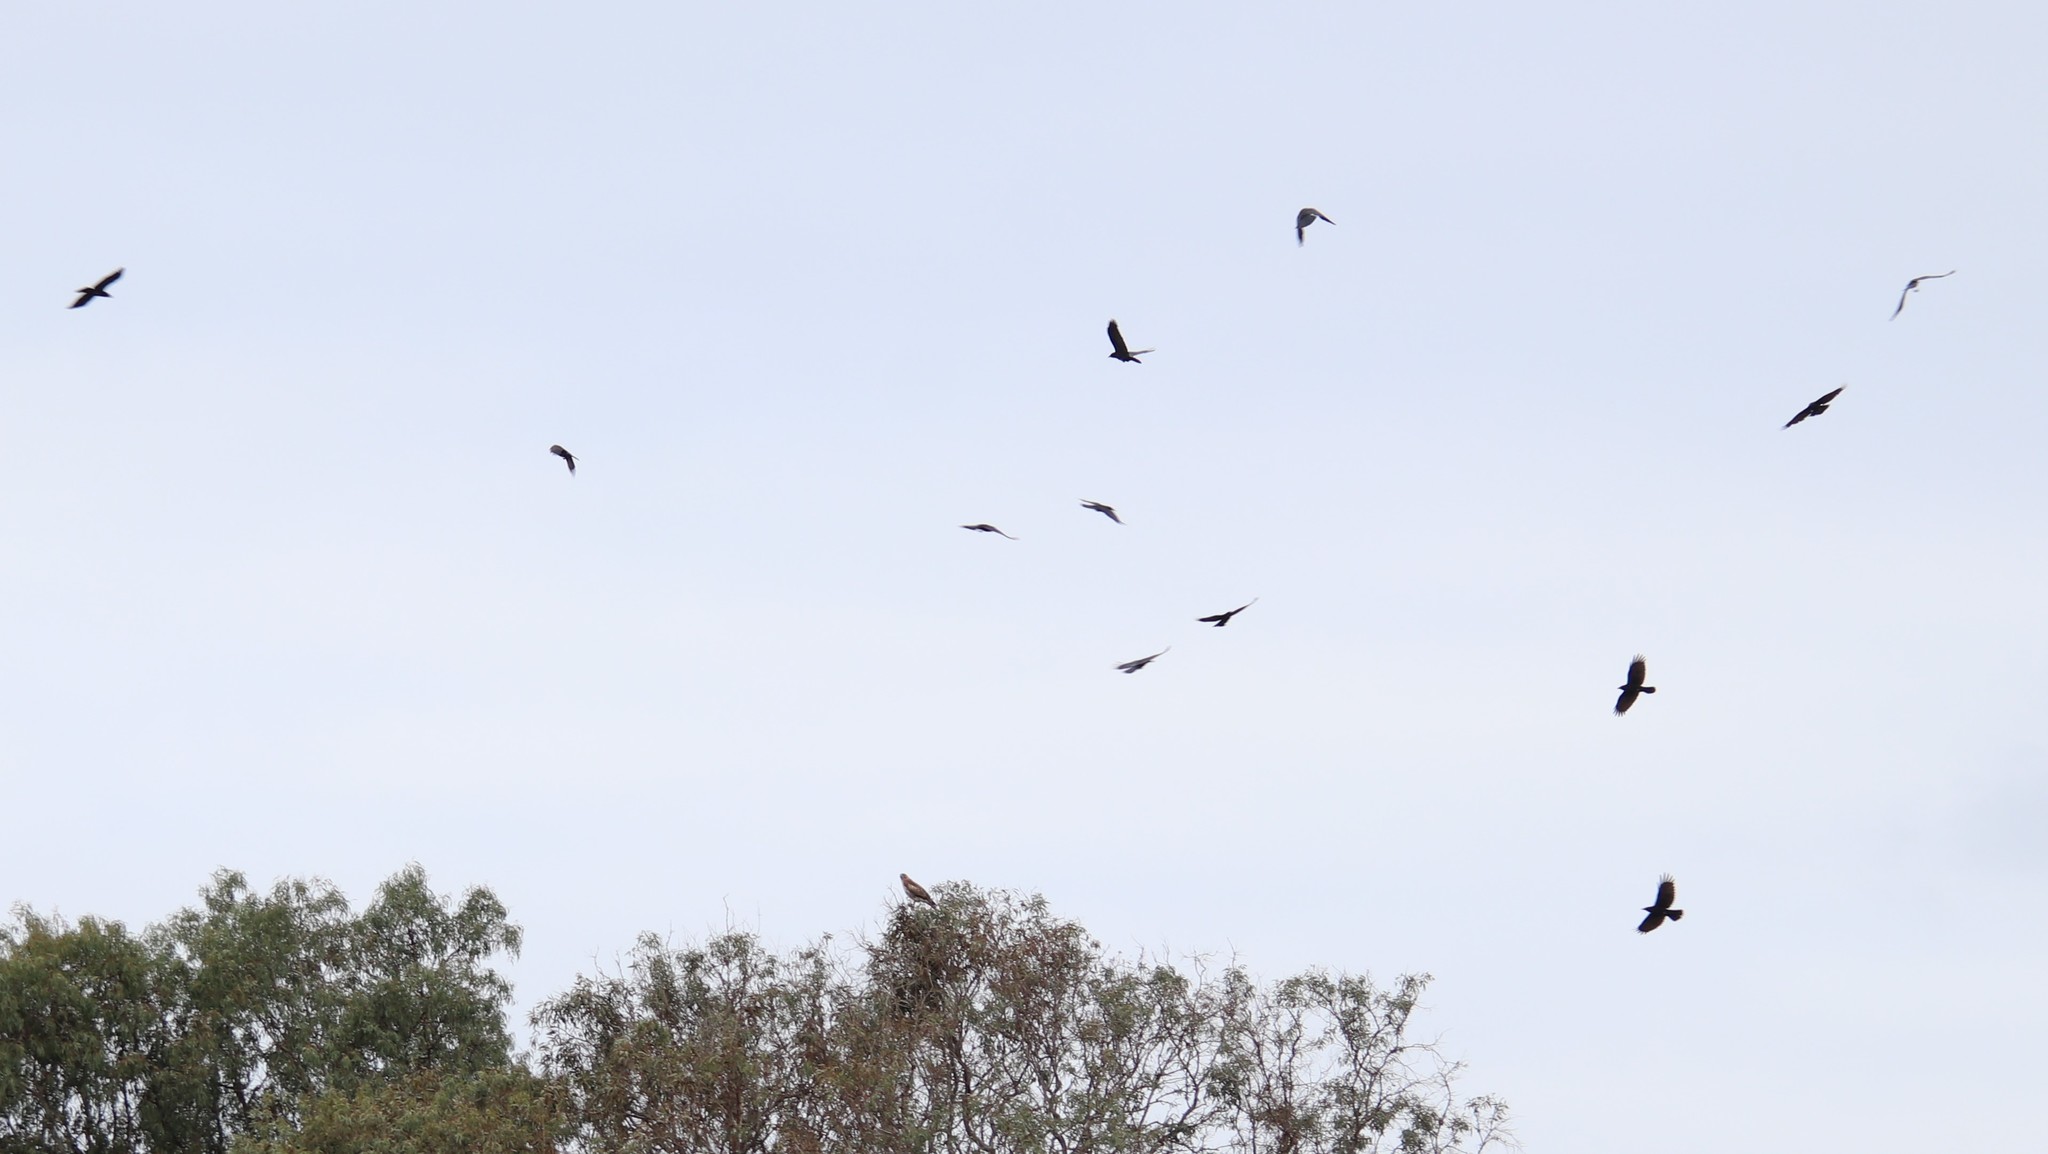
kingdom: Animalia
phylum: Chordata
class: Aves
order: Accipitriformes
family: Accipitridae
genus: Buteo
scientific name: Buteo jamaicensis
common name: Red-tailed hawk
